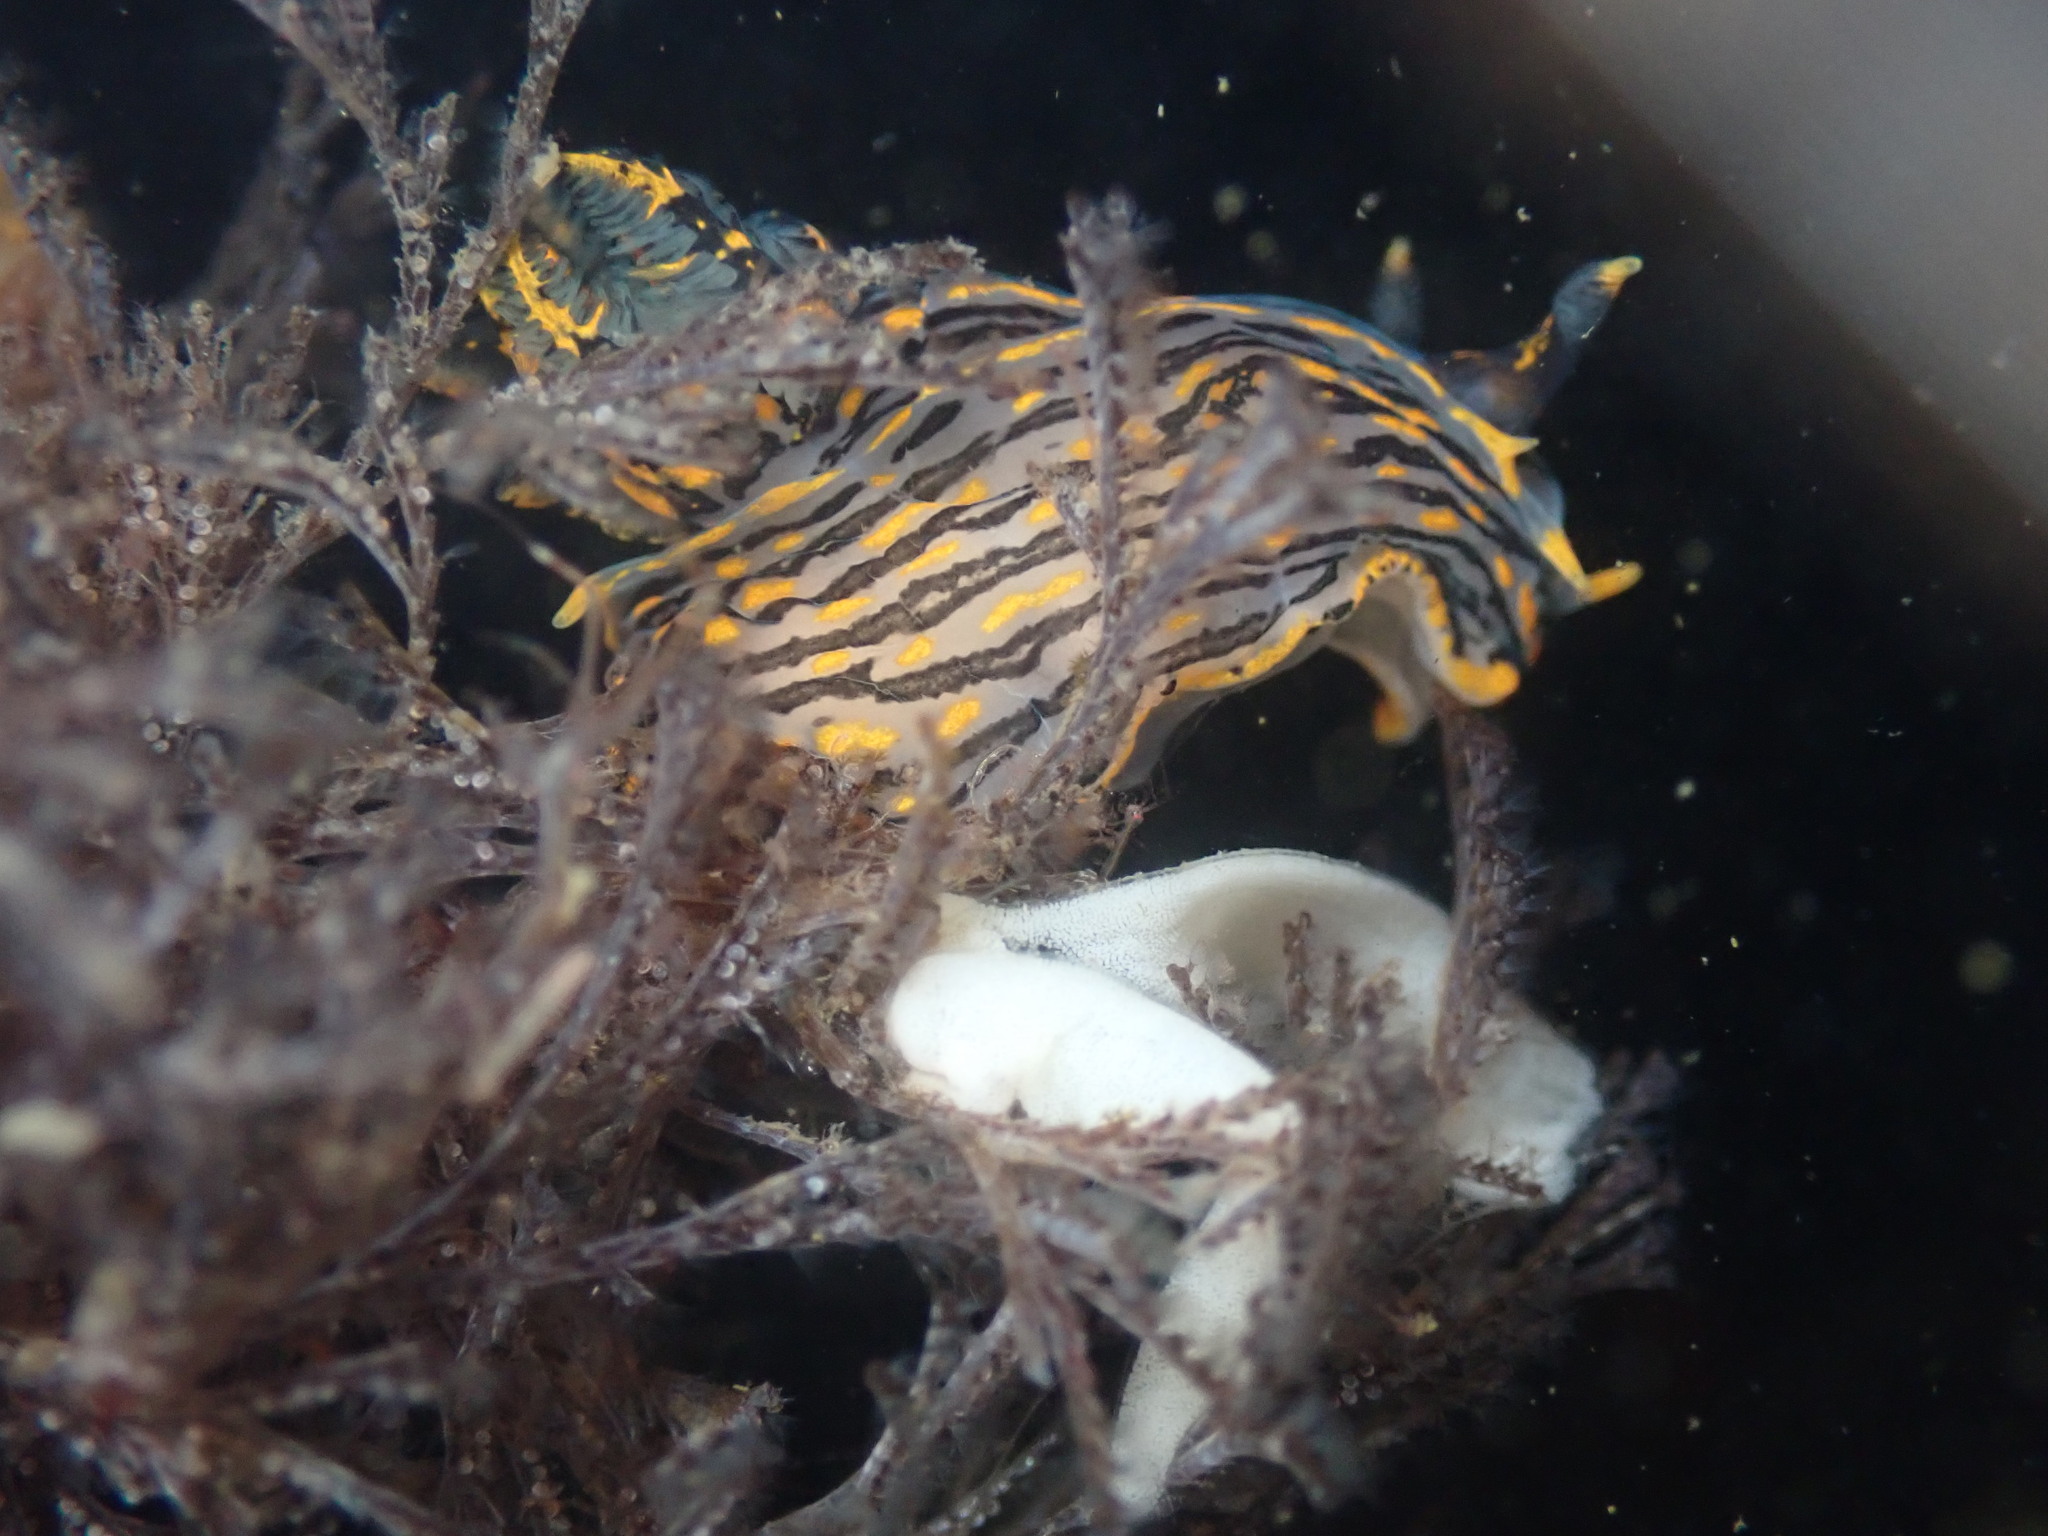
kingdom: Animalia
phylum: Mollusca
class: Gastropoda
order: Nudibranchia
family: Polyceridae
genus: Polycera
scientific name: Polycera atra
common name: Orange-spike polycera
